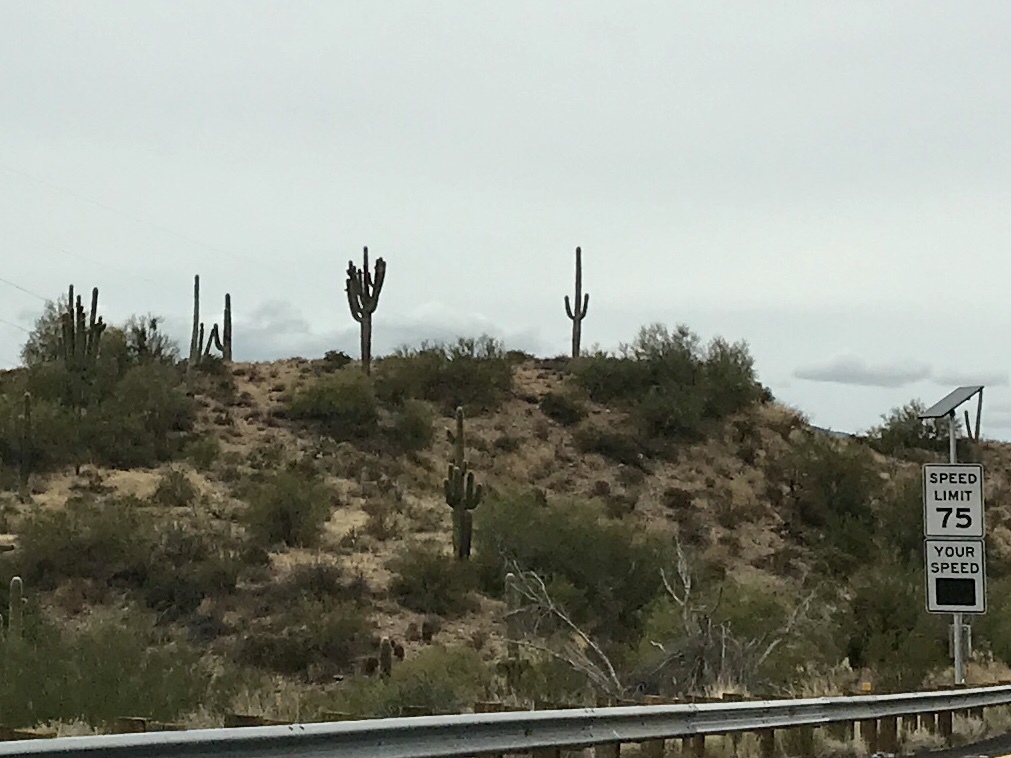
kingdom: Plantae
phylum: Tracheophyta
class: Magnoliopsida
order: Caryophyllales
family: Cactaceae
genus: Carnegiea
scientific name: Carnegiea gigantea
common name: Saguaro
